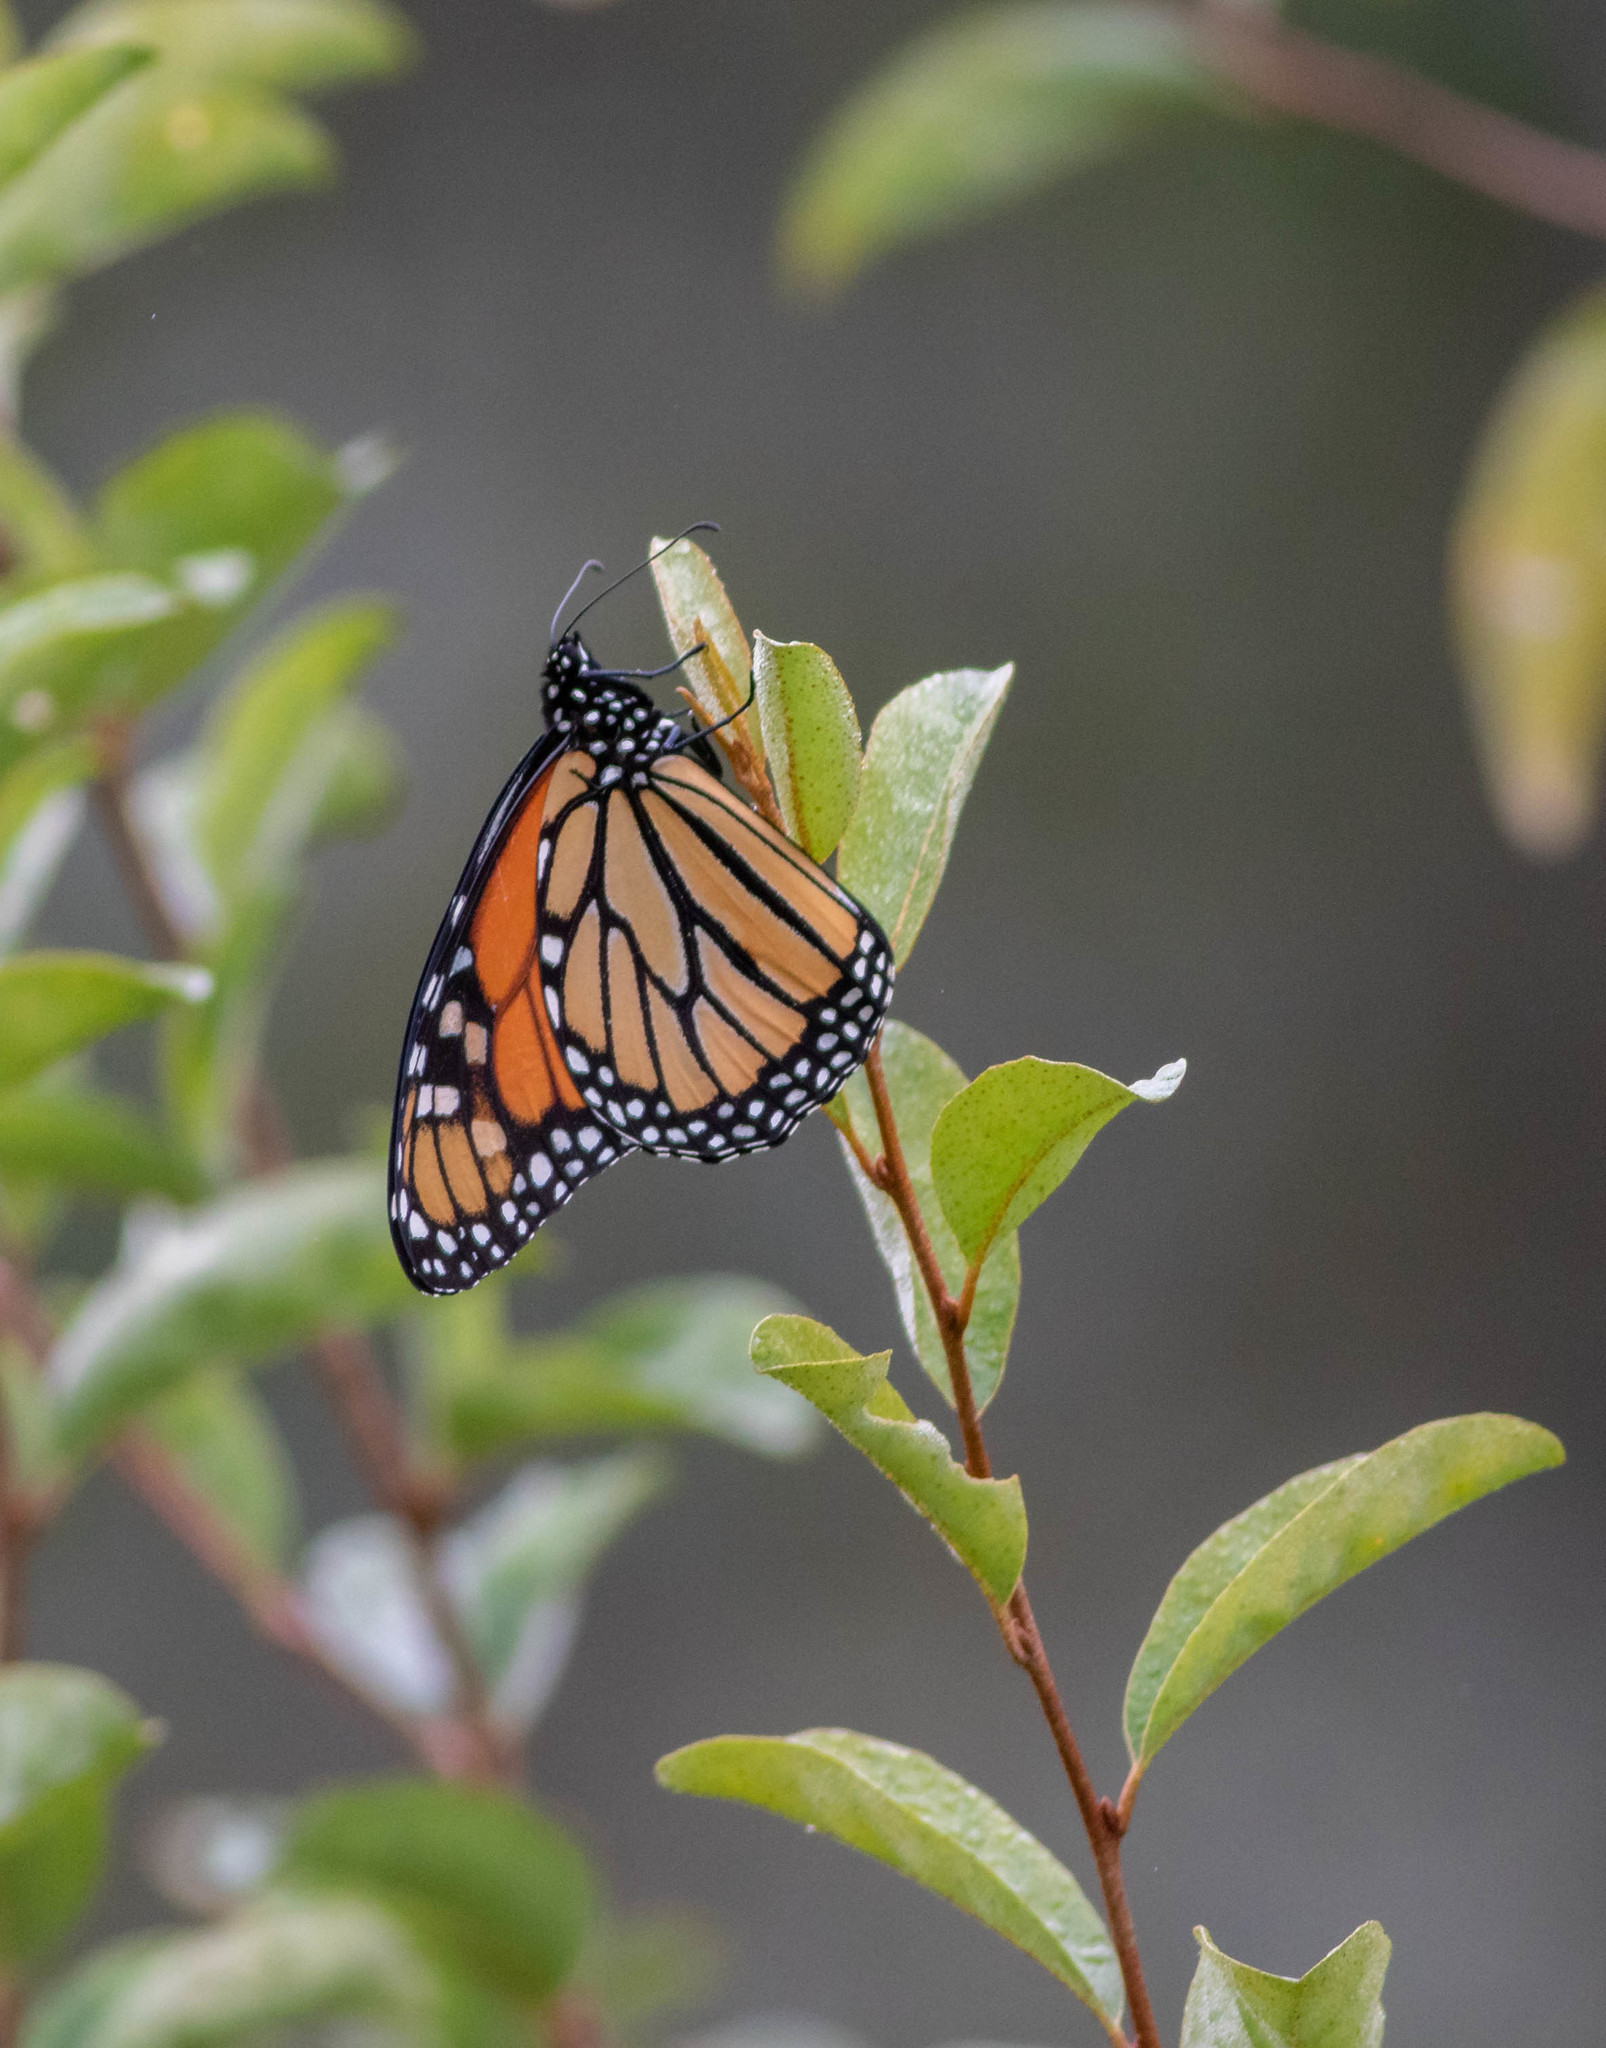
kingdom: Animalia
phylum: Arthropoda
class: Insecta
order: Lepidoptera
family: Nymphalidae
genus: Danaus
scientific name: Danaus plexippus
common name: Monarch
